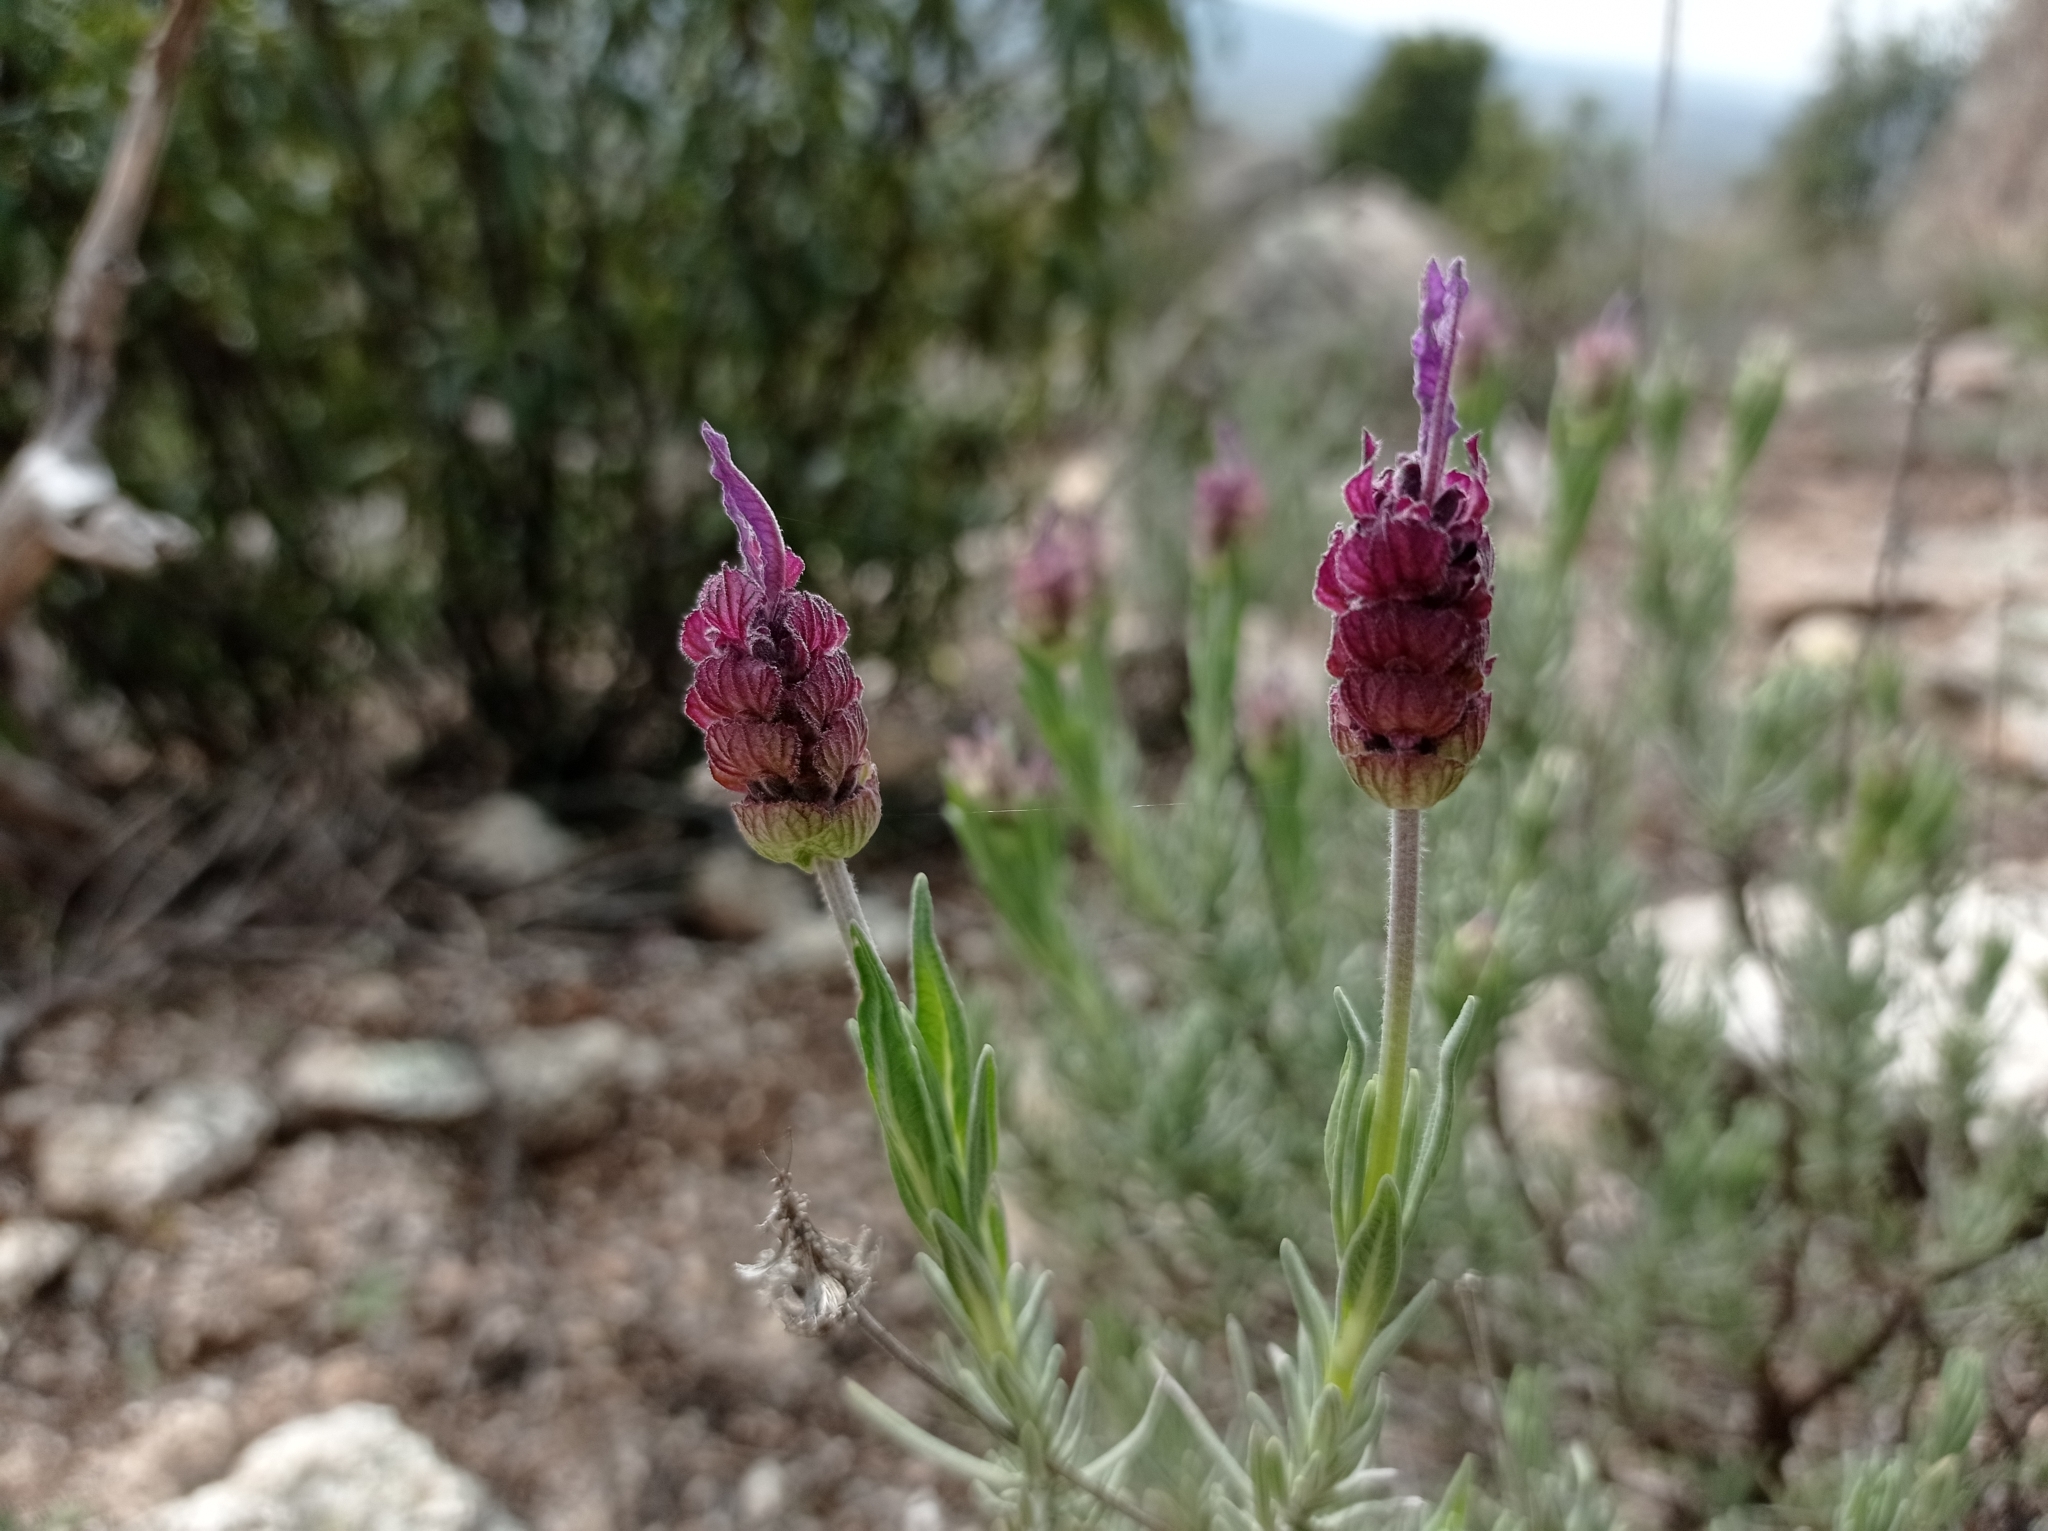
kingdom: Plantae
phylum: Tracheophyta
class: Magnoliopsida
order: Lamiales
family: Lamiaceae
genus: Lavandula
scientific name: Lavandula pedunculata
